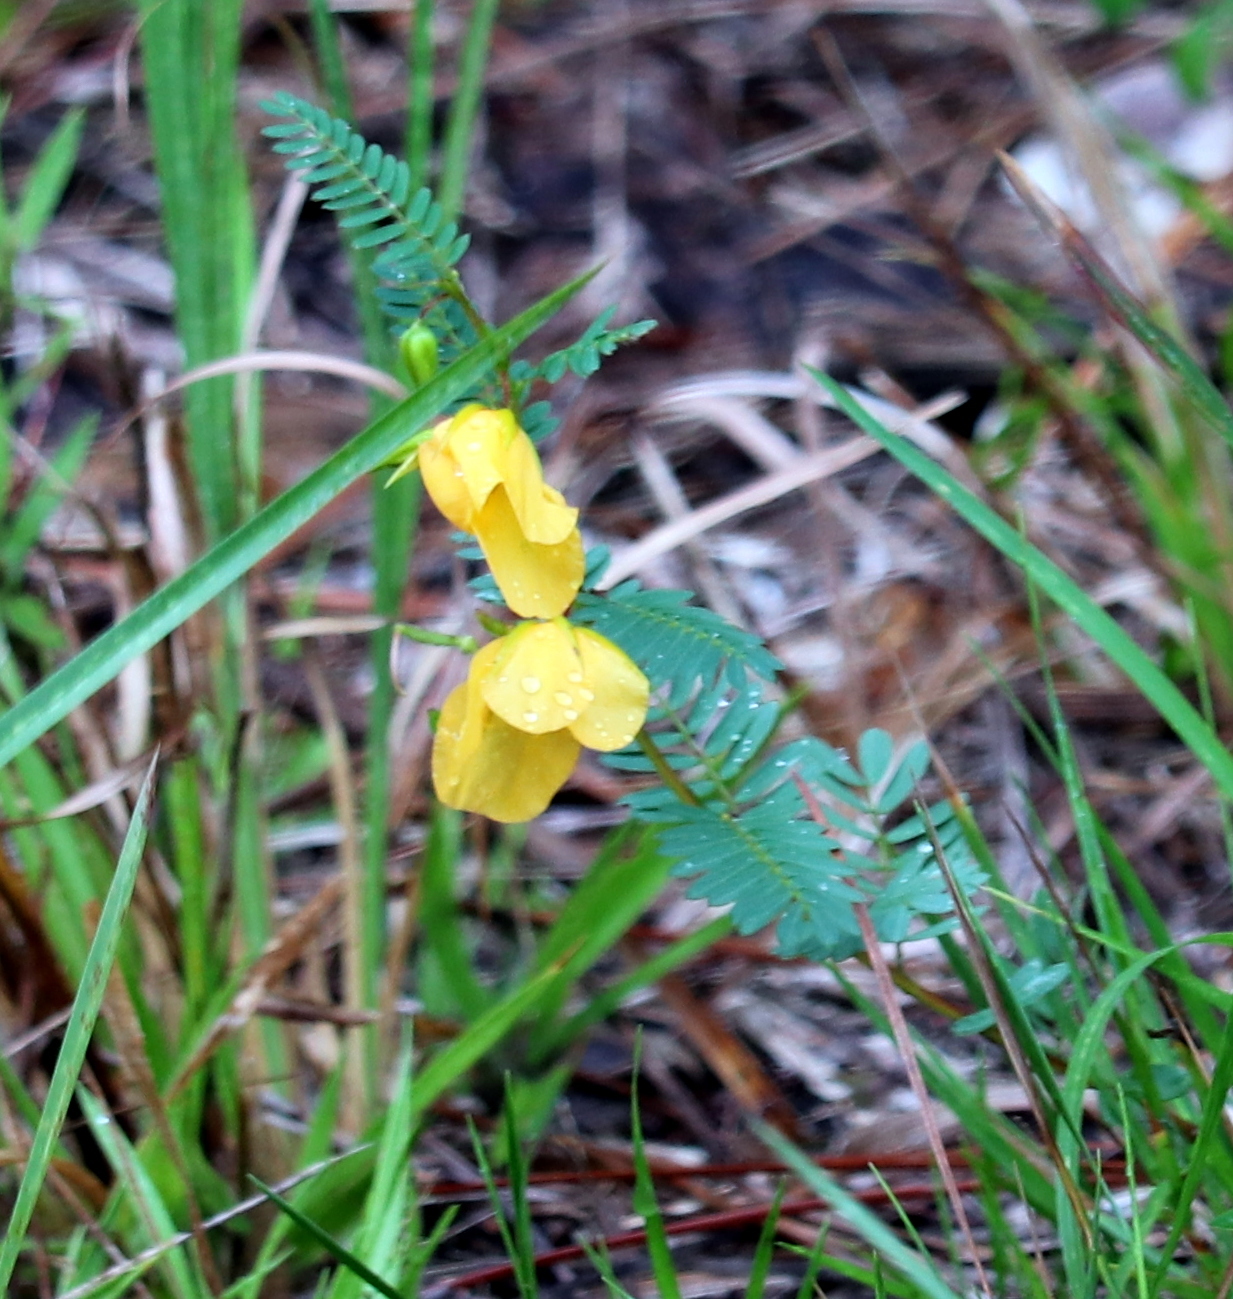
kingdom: Plantae
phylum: Tracheophyta
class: Magnoliopsida
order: Fabales
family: Fabaceae
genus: Chamaecrista
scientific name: Chamaecrista fasciculata
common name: Golden cassia
